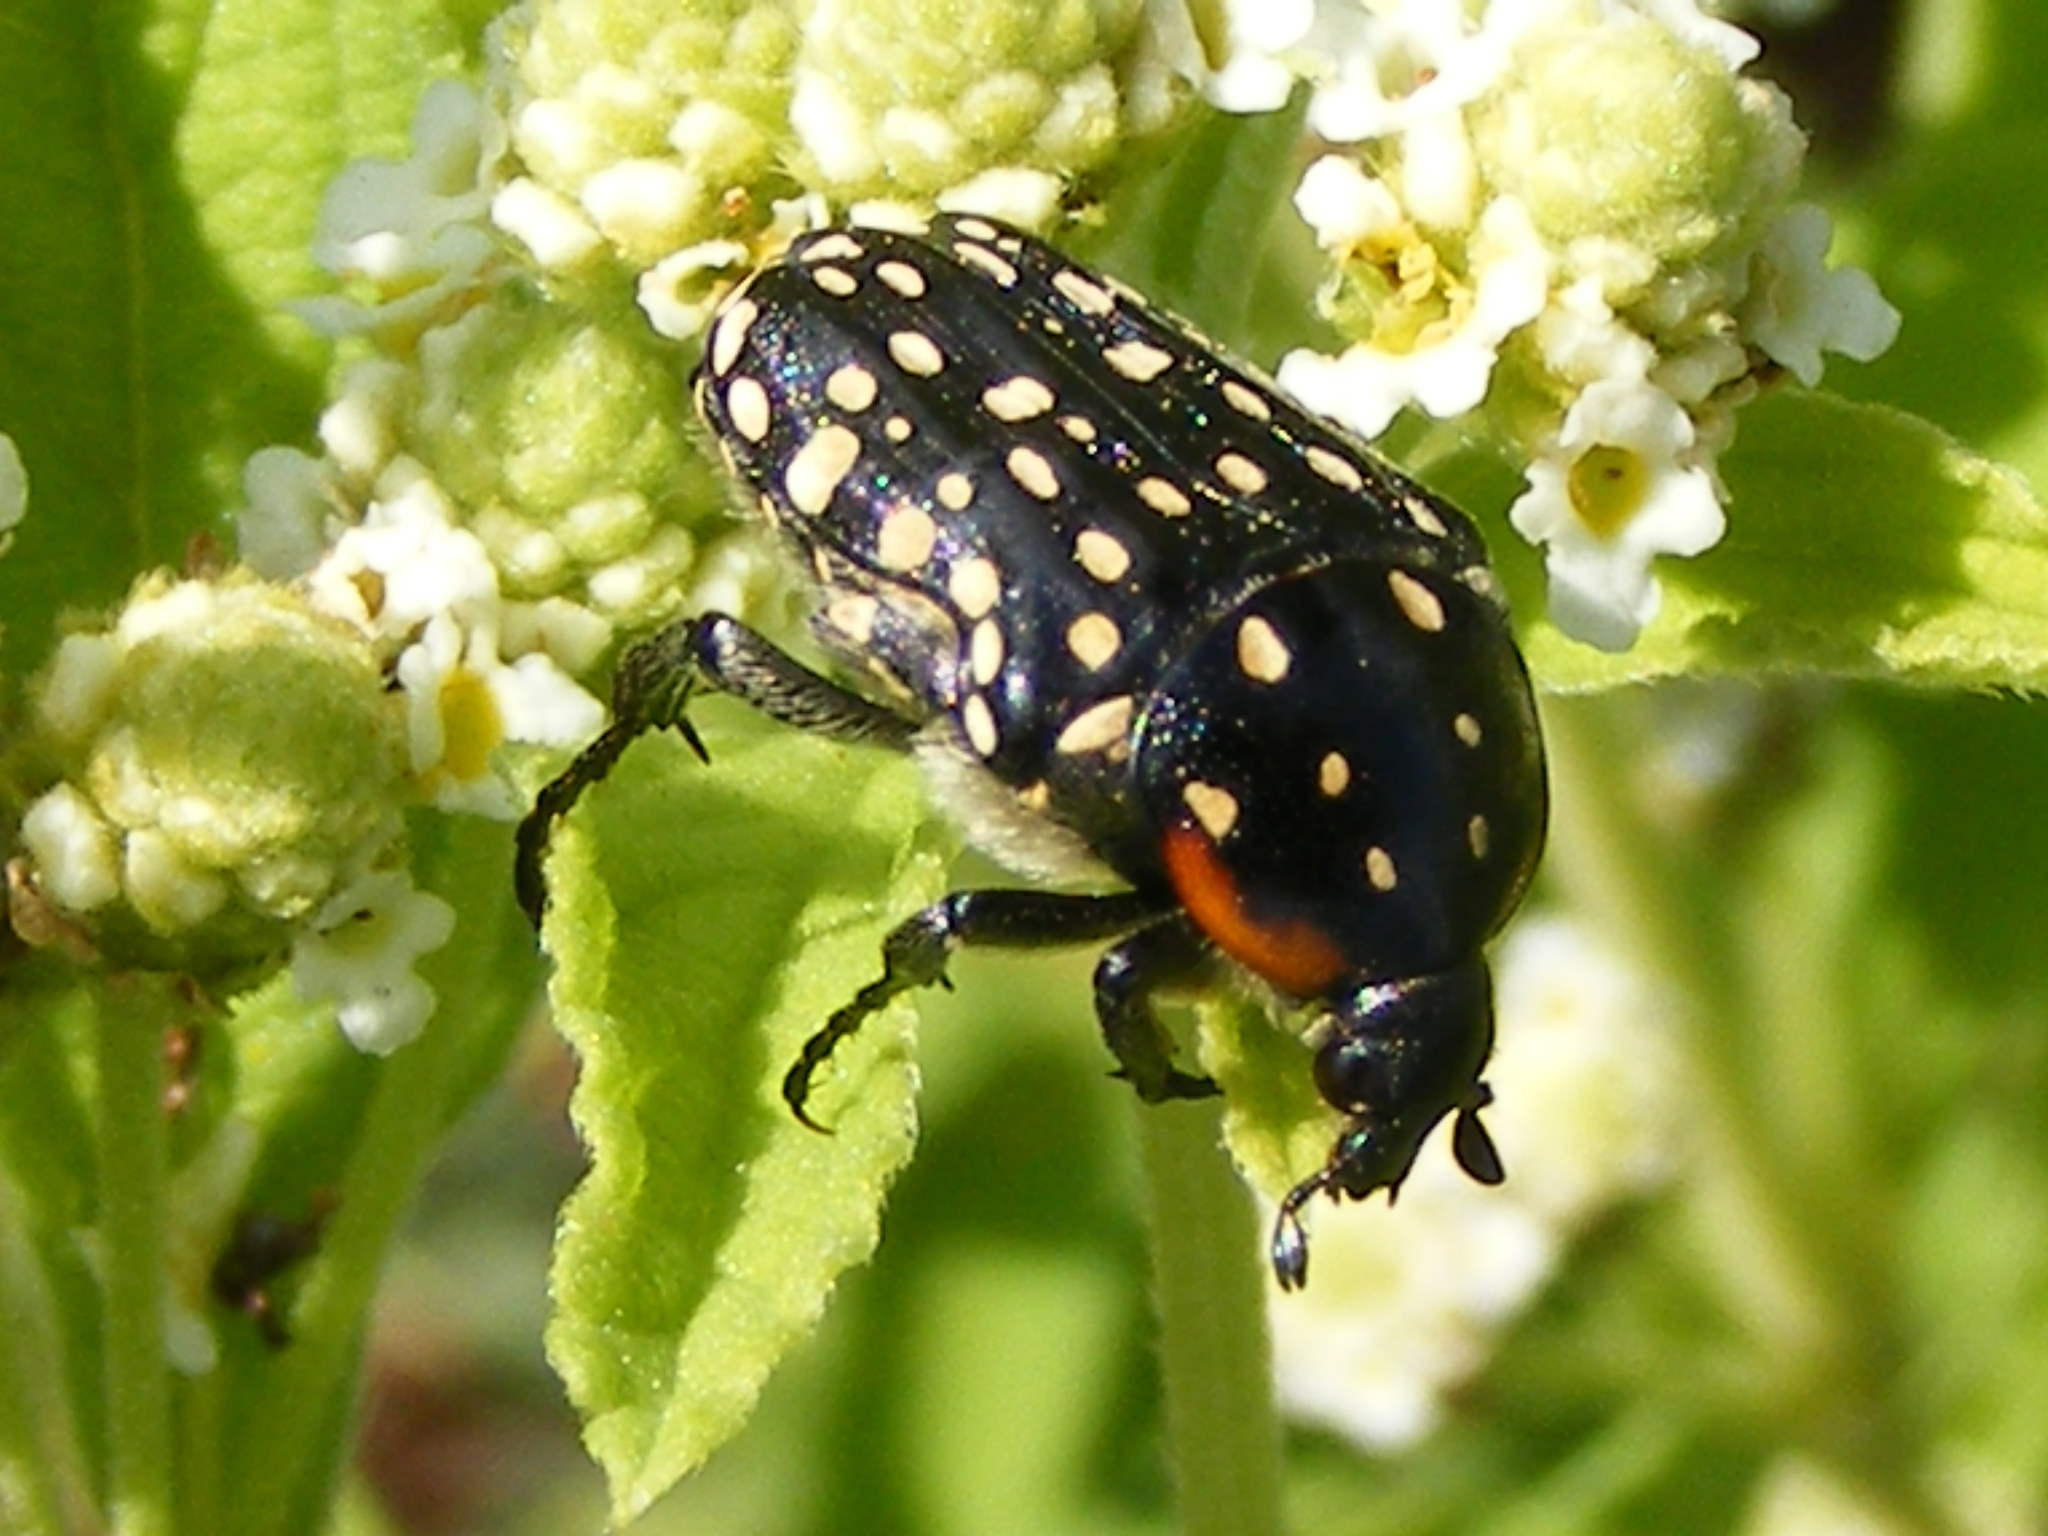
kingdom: Animalia
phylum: Arthropoda
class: Insecta
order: Coleoptera
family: Scarabaeidae
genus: Oxythyrea
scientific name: Oxythyrea
